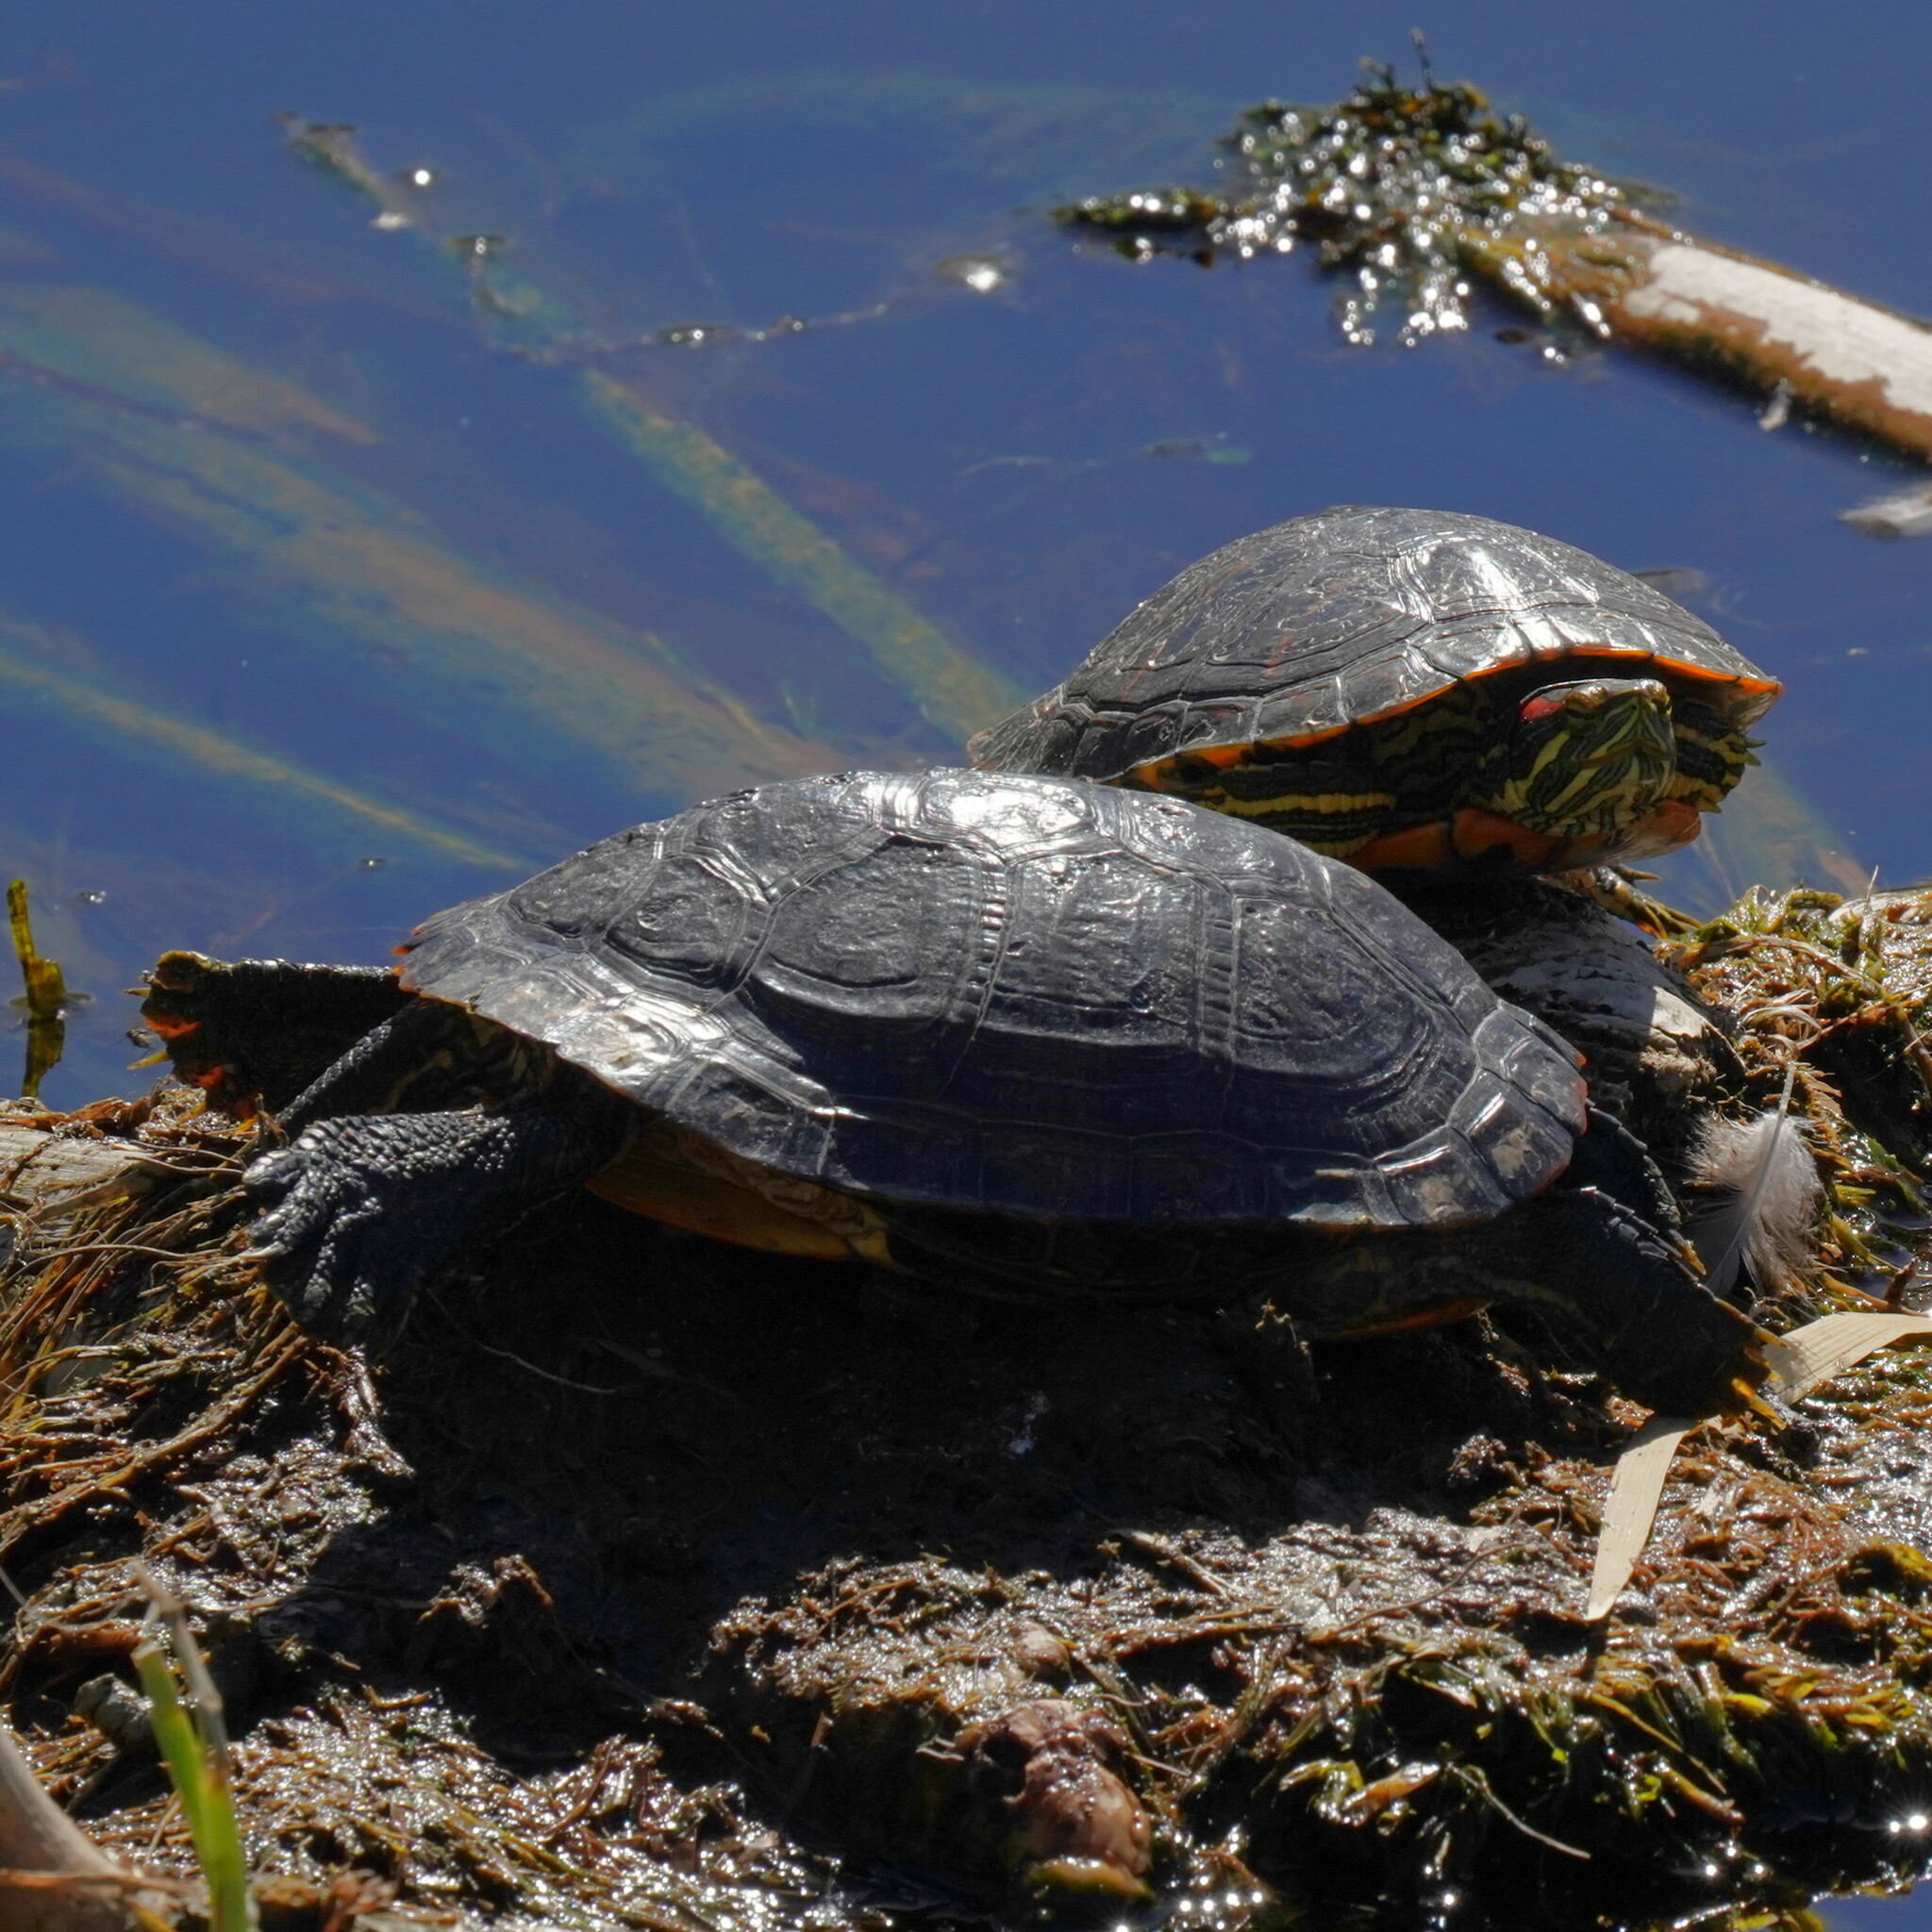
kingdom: Animalia
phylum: Chordata
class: Testudines
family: Emydidae
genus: Trachemys
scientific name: Trachemys scripta
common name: Slider
